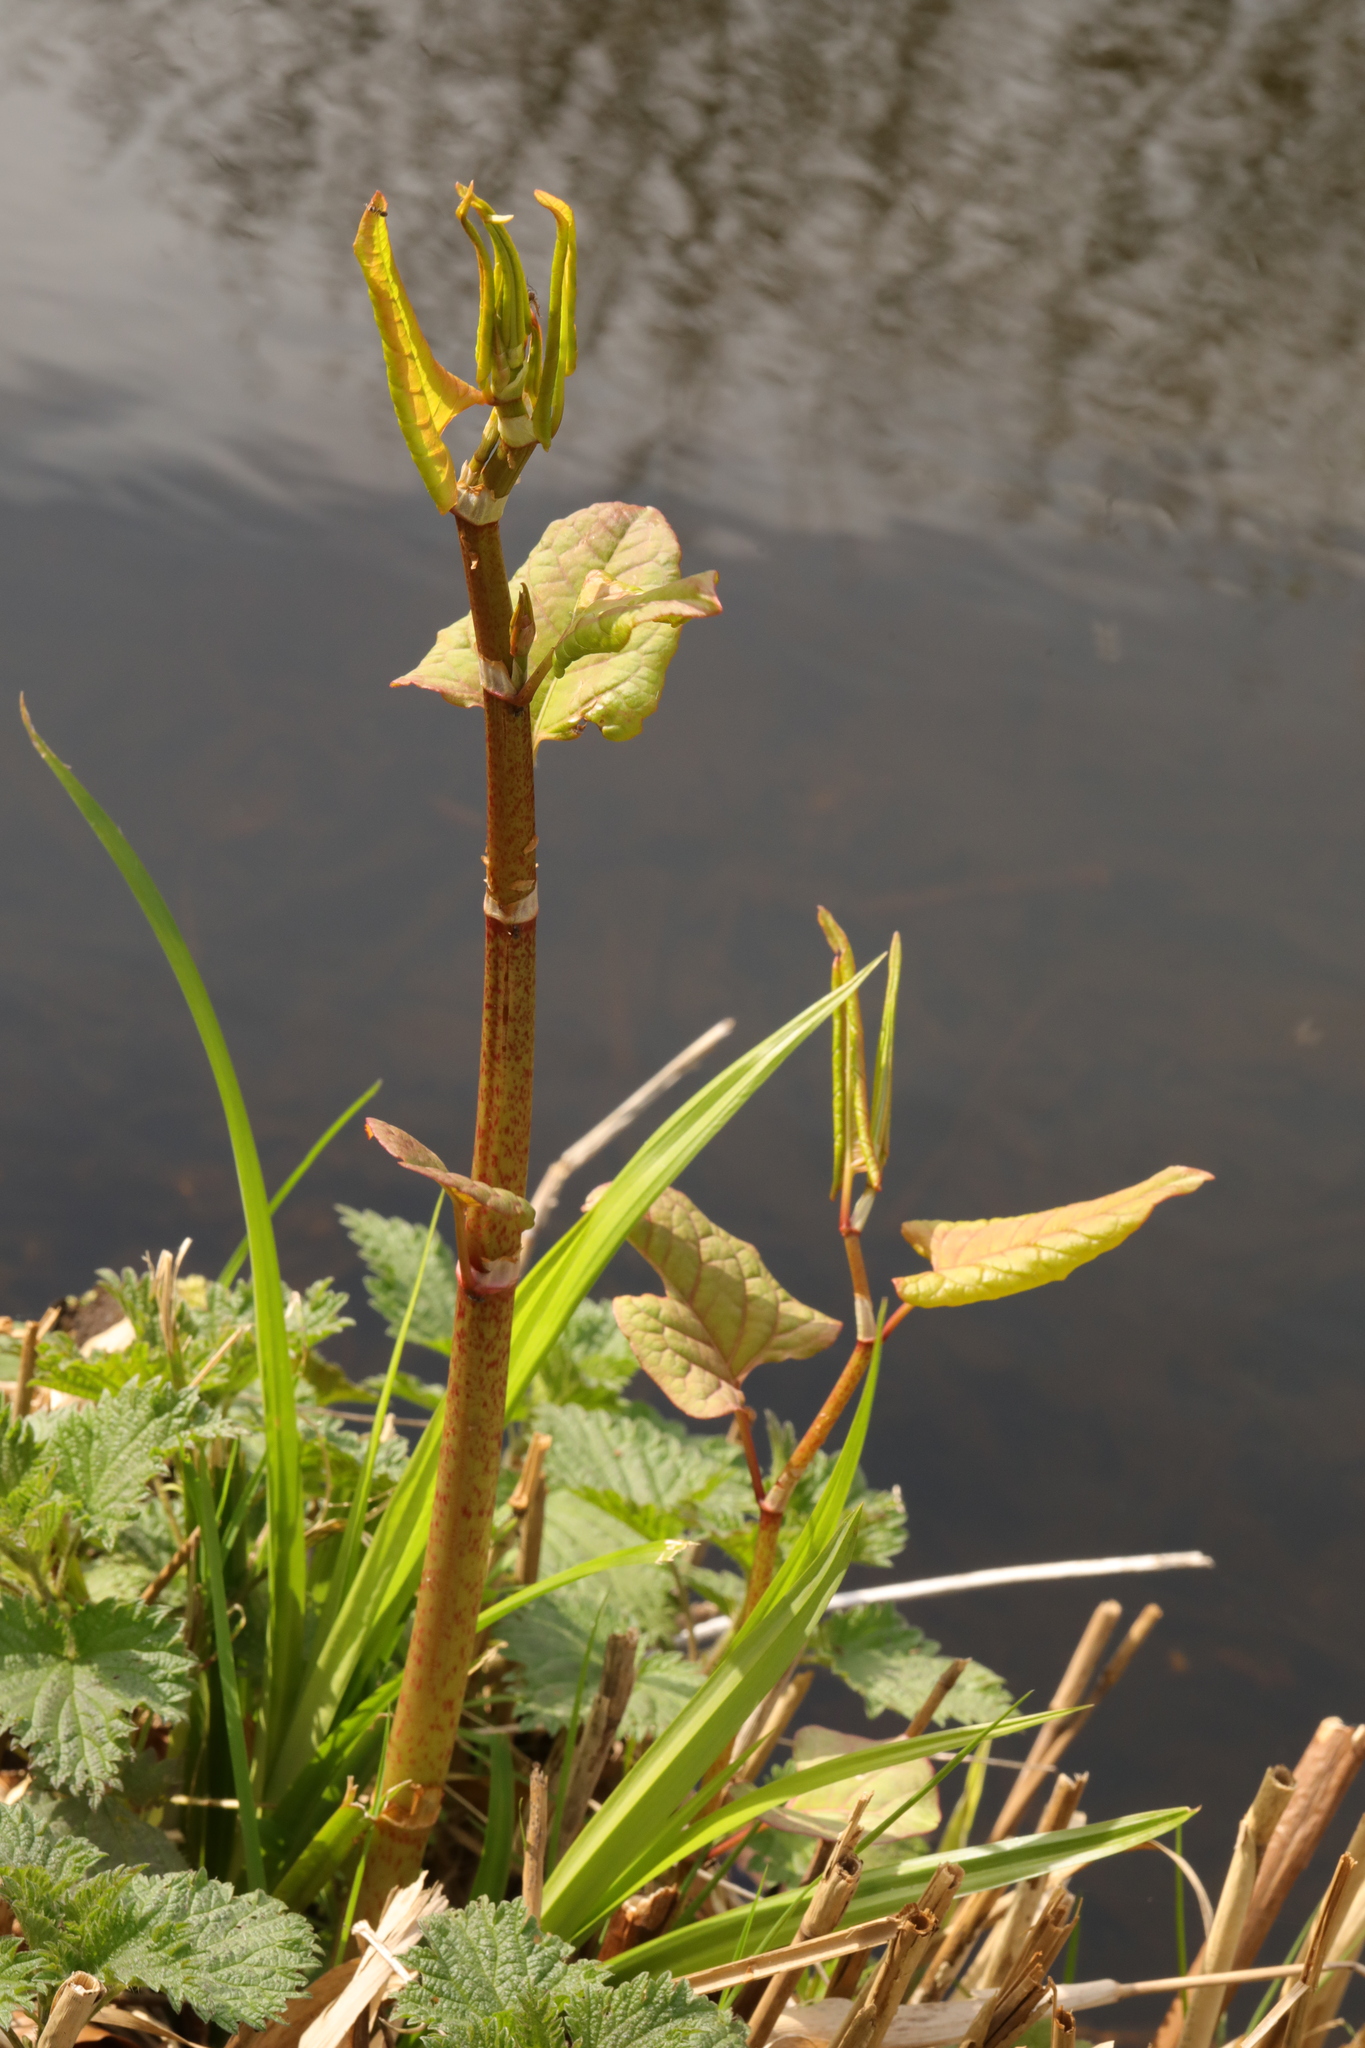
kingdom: Plantae
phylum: Tracheophyta
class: Magnoliopsida
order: Caryophyllales
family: Polygonaceae
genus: Reynoutria
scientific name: Reynoutria japonica
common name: Japanese knotweed
